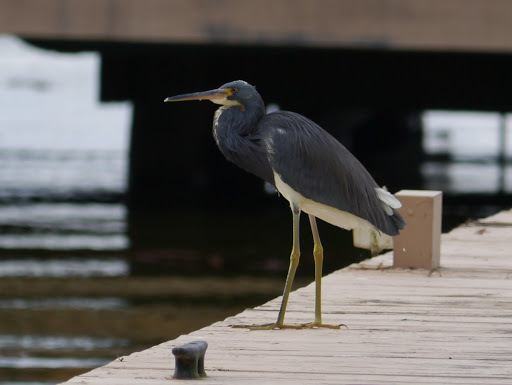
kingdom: Animalia
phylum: Chordata
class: Aves
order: Pelecaniformes
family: Ardeidae
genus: Egretta
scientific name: Egretta tricolor
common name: Tricolored heron
